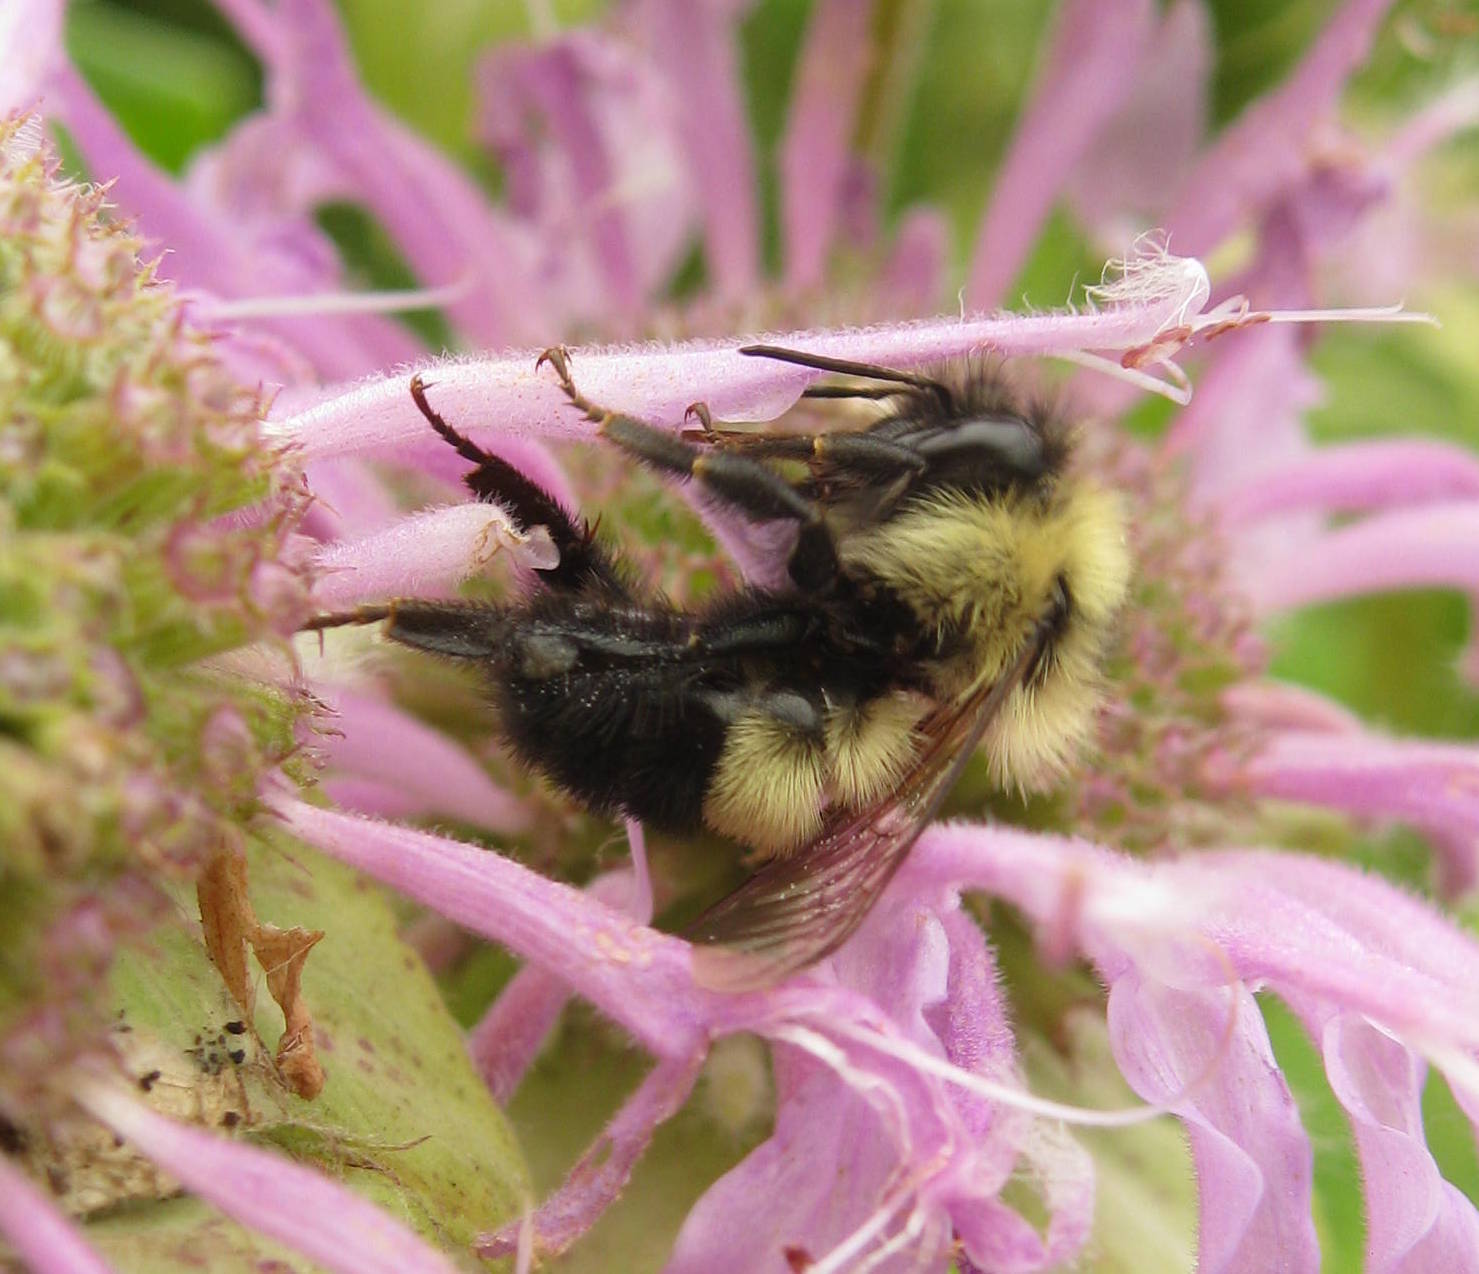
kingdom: Animalia
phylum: Arthropoda
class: Insecta
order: Hymenoptera
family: Apidae
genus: Pyrobombus
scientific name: Pyrobombus
